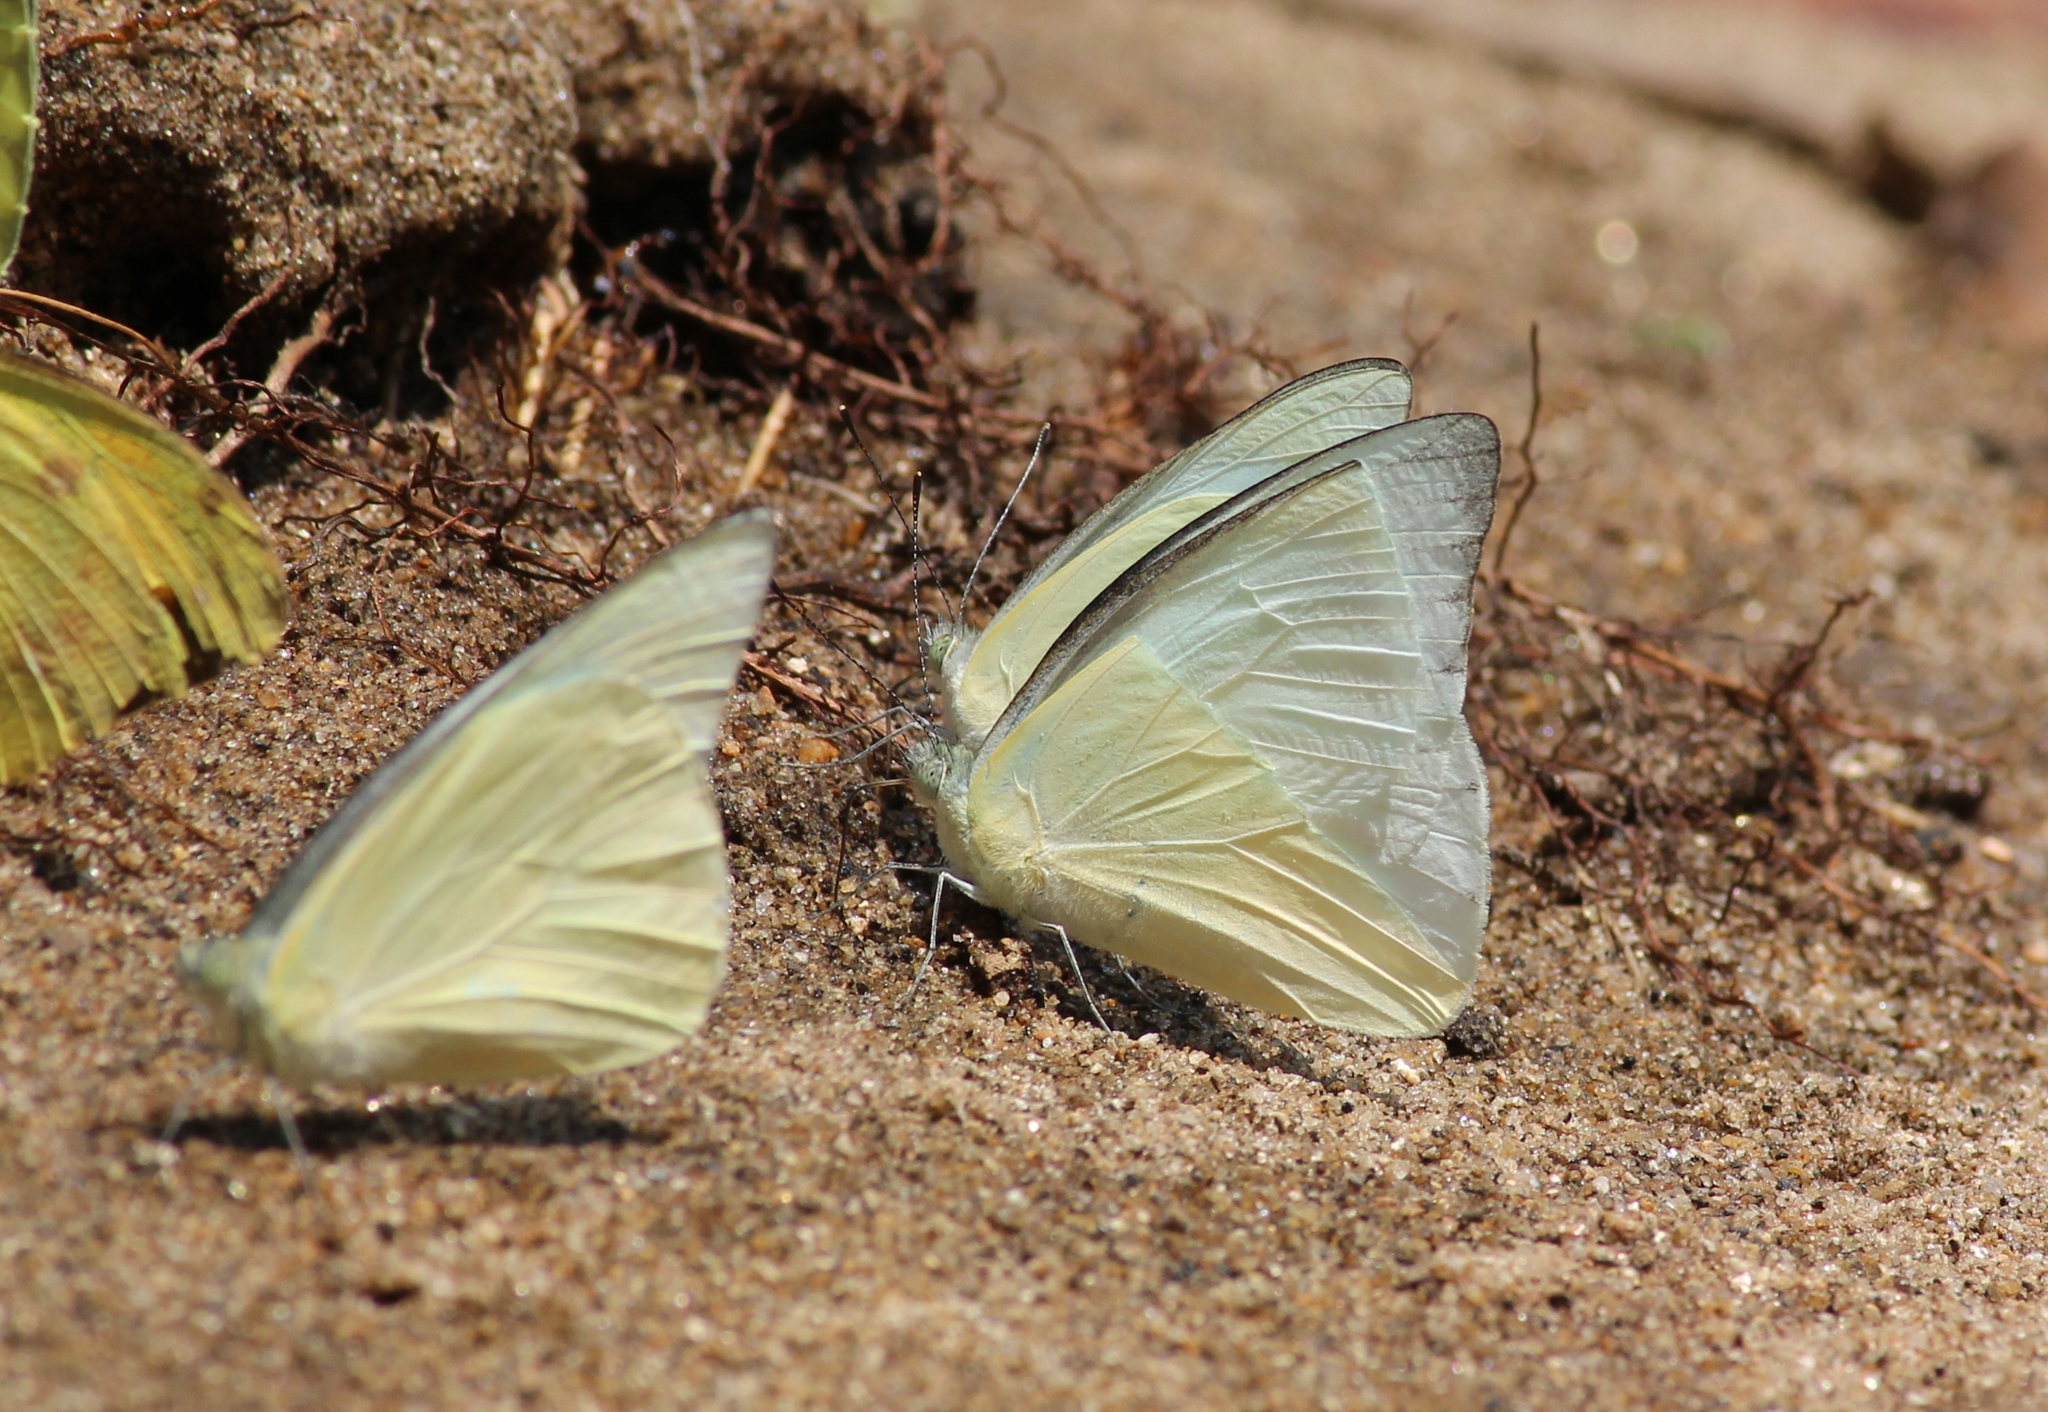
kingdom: Animalia
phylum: Arthropoda
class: Insecta
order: Lepidoptera
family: Pieridae
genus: Appias
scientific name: Appias albina
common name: Common albatross
